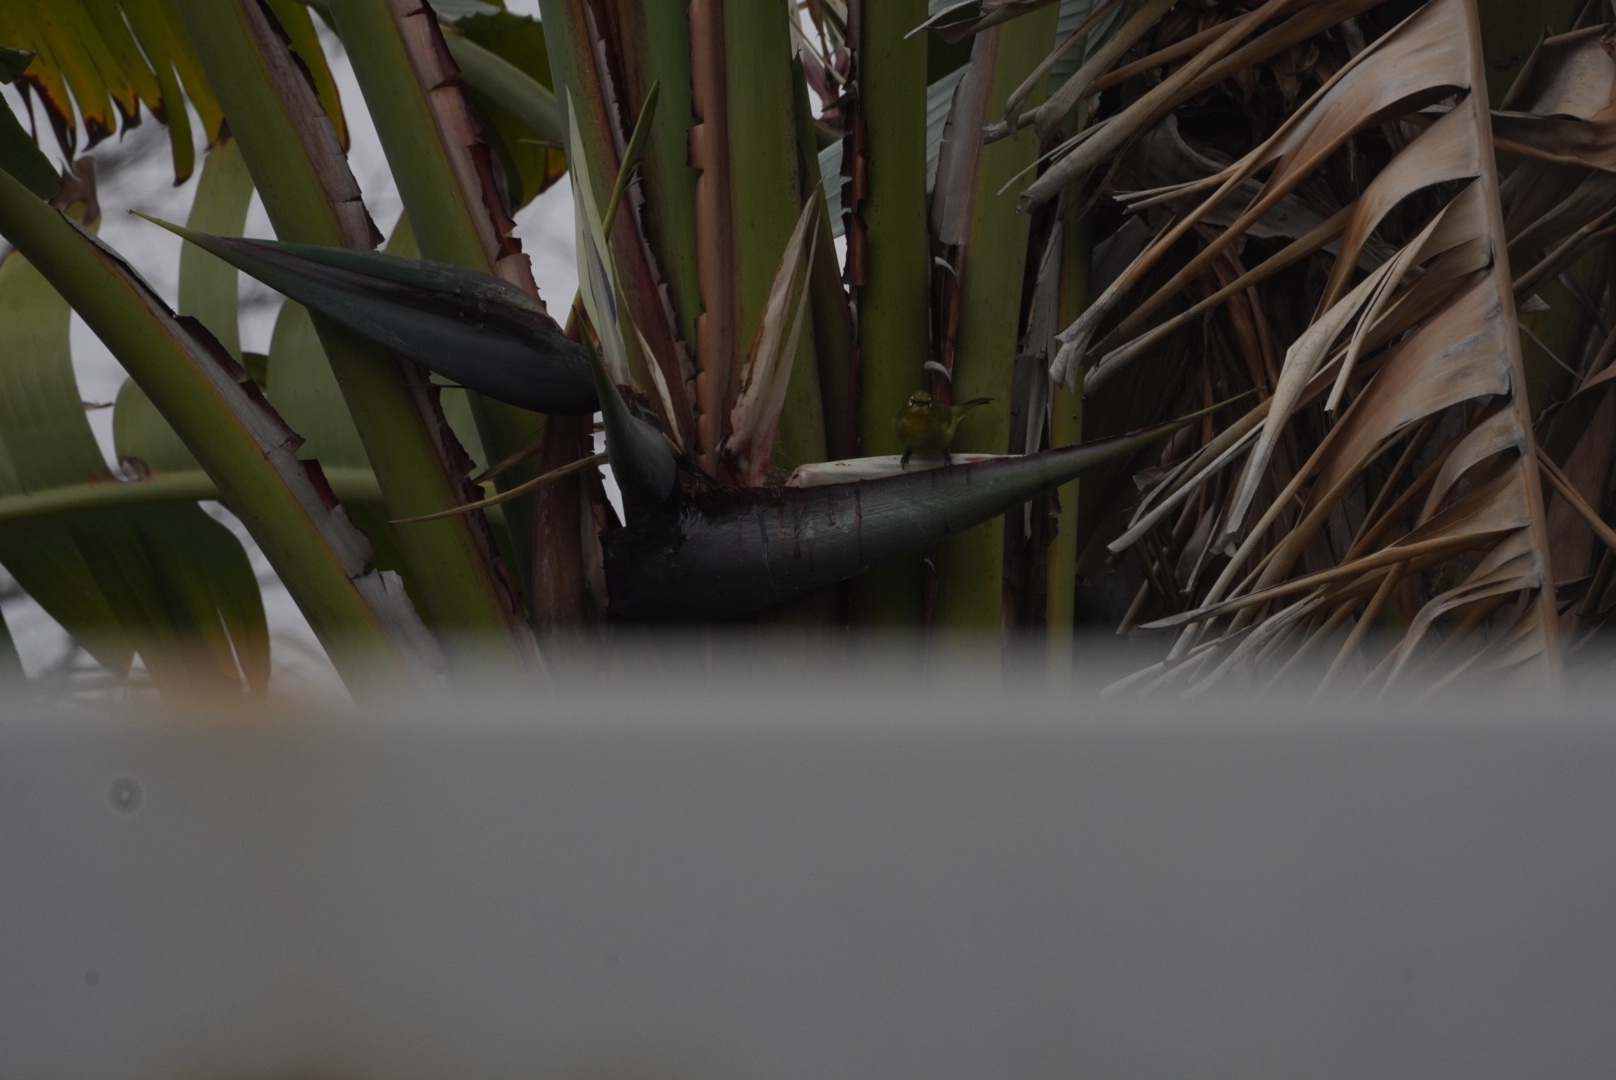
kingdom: Animalia
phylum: Chordata
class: Aves
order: Passeriformes
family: Zosteropidae
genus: Zosterops
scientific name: Zosterops virens
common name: Cape white-eye
